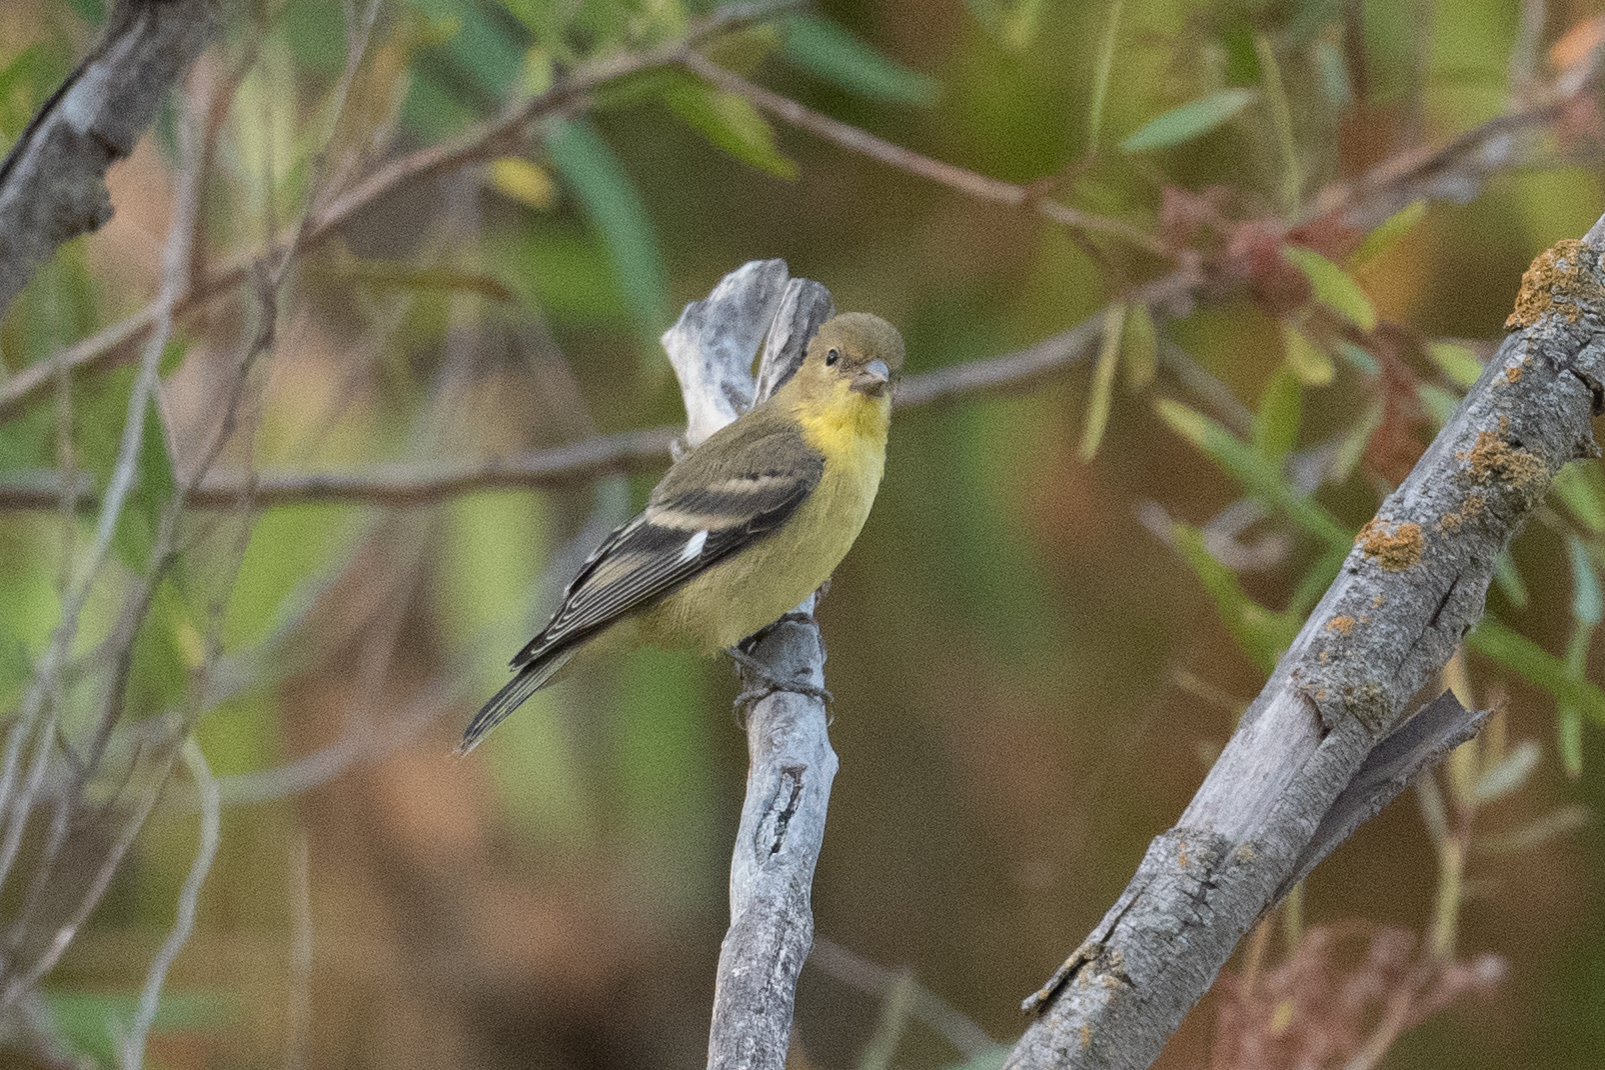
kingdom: Animalia
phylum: Chordata
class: Aves
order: Passeriformes
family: Fringillidae
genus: Spinus
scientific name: Spinus psaltria
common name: Lesser goldfinch
